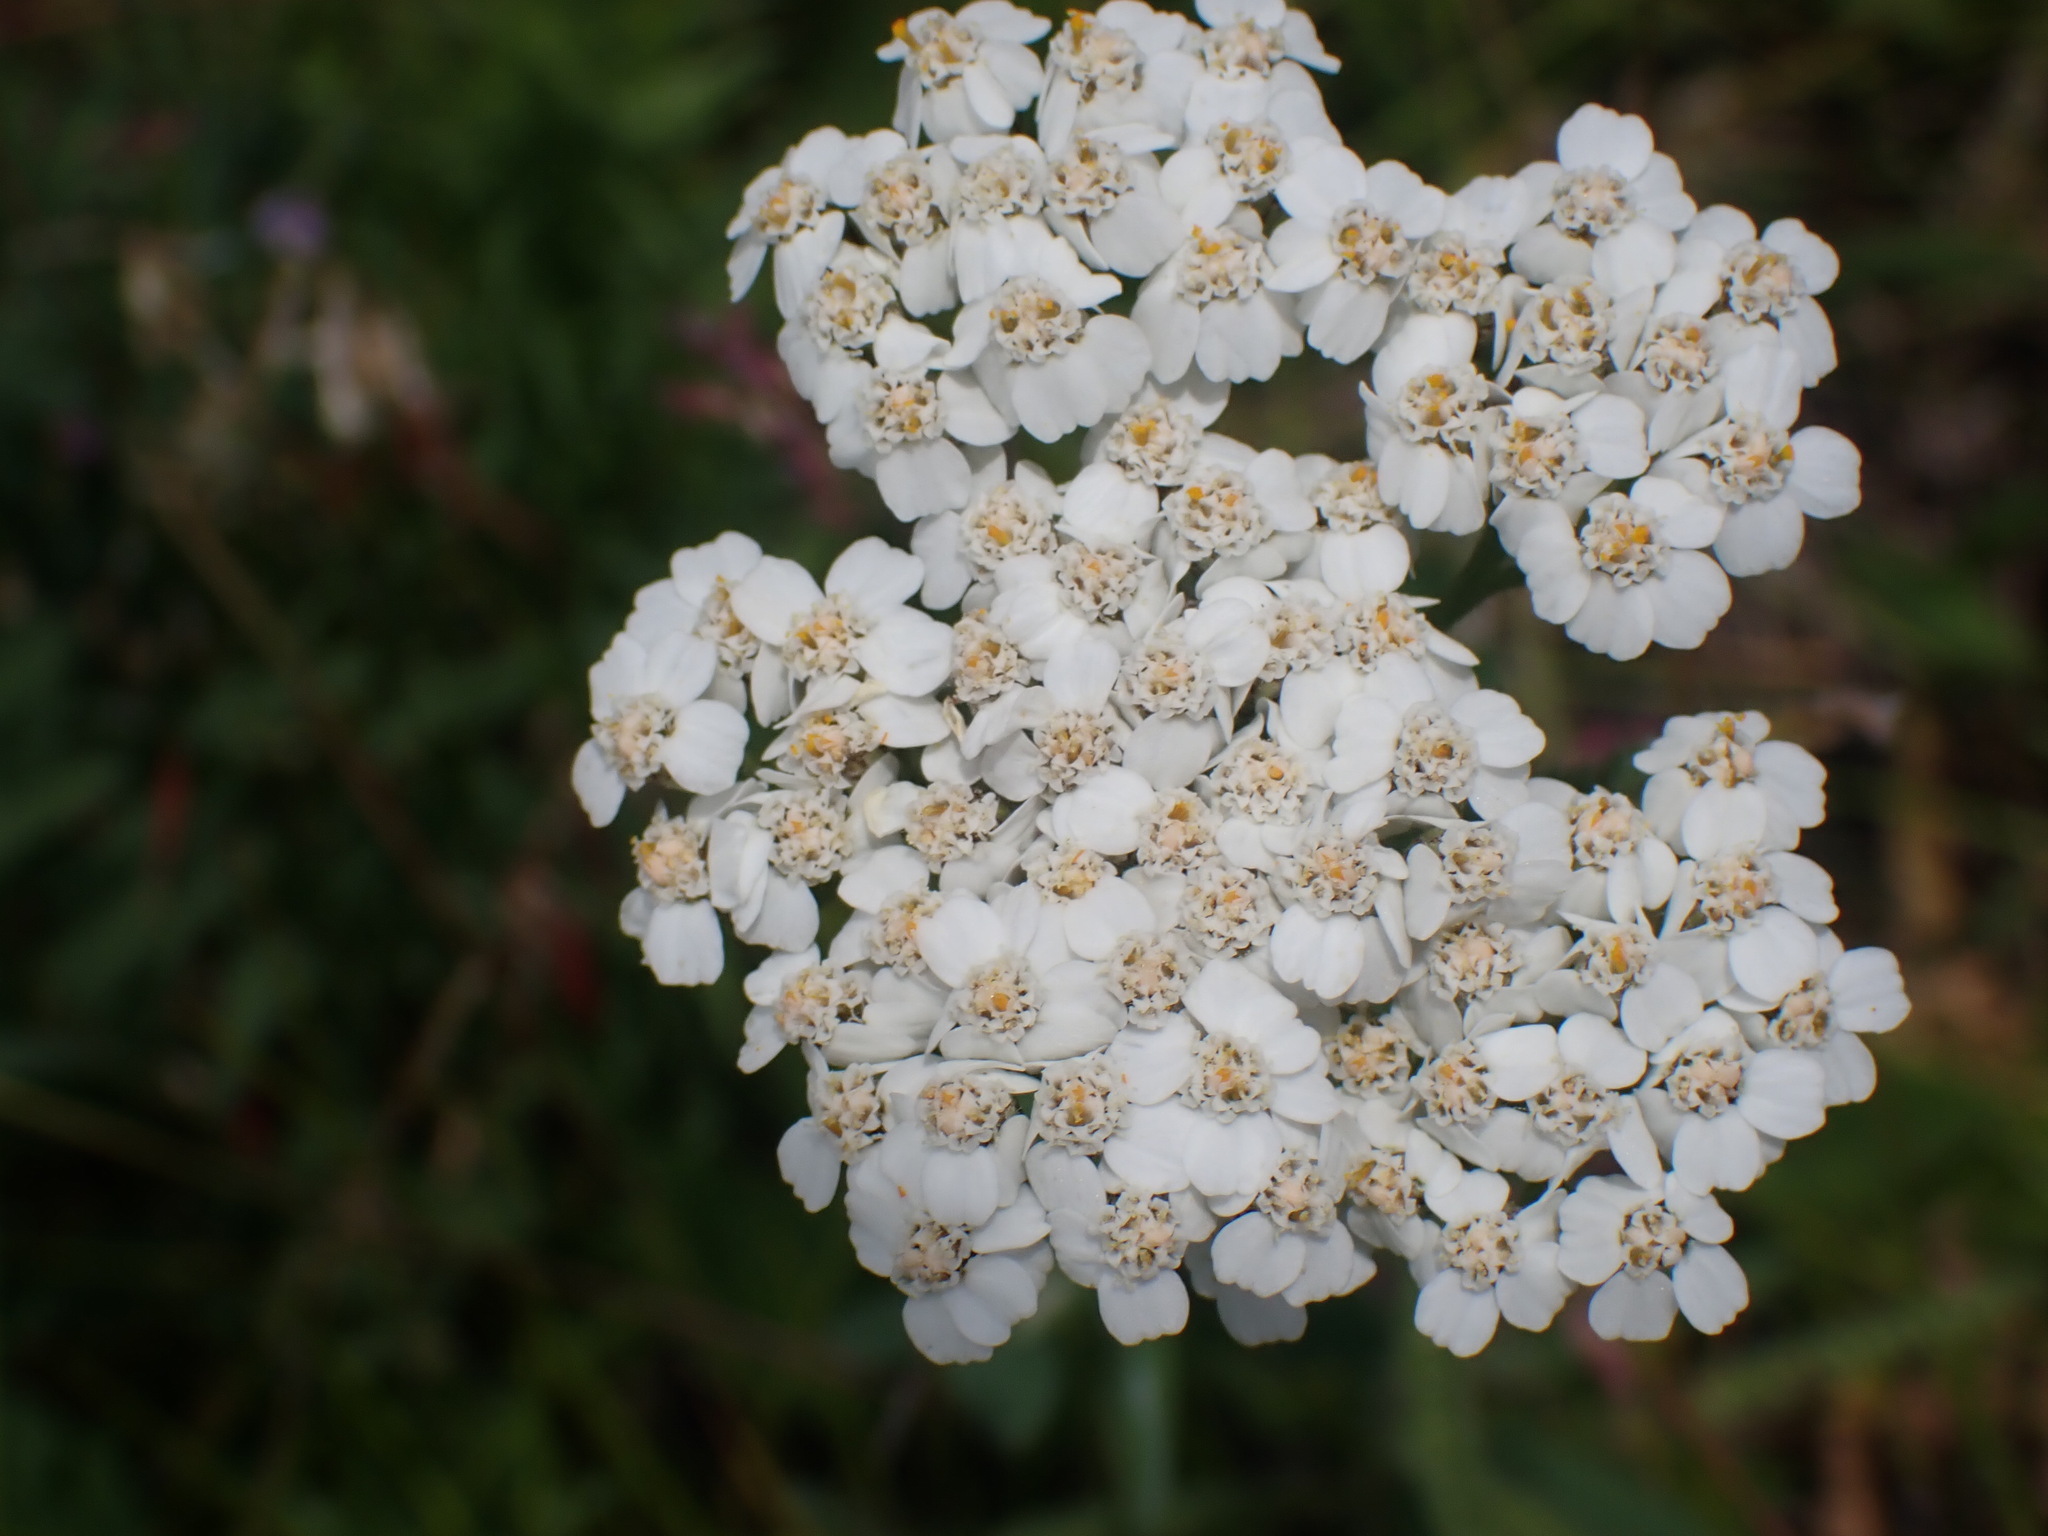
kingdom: Plantae
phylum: Tracheophyta
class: Magnoliopsida
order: Asterales
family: Asteraceae
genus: Achillea
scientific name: Achillea millefolium
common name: Yarrow
